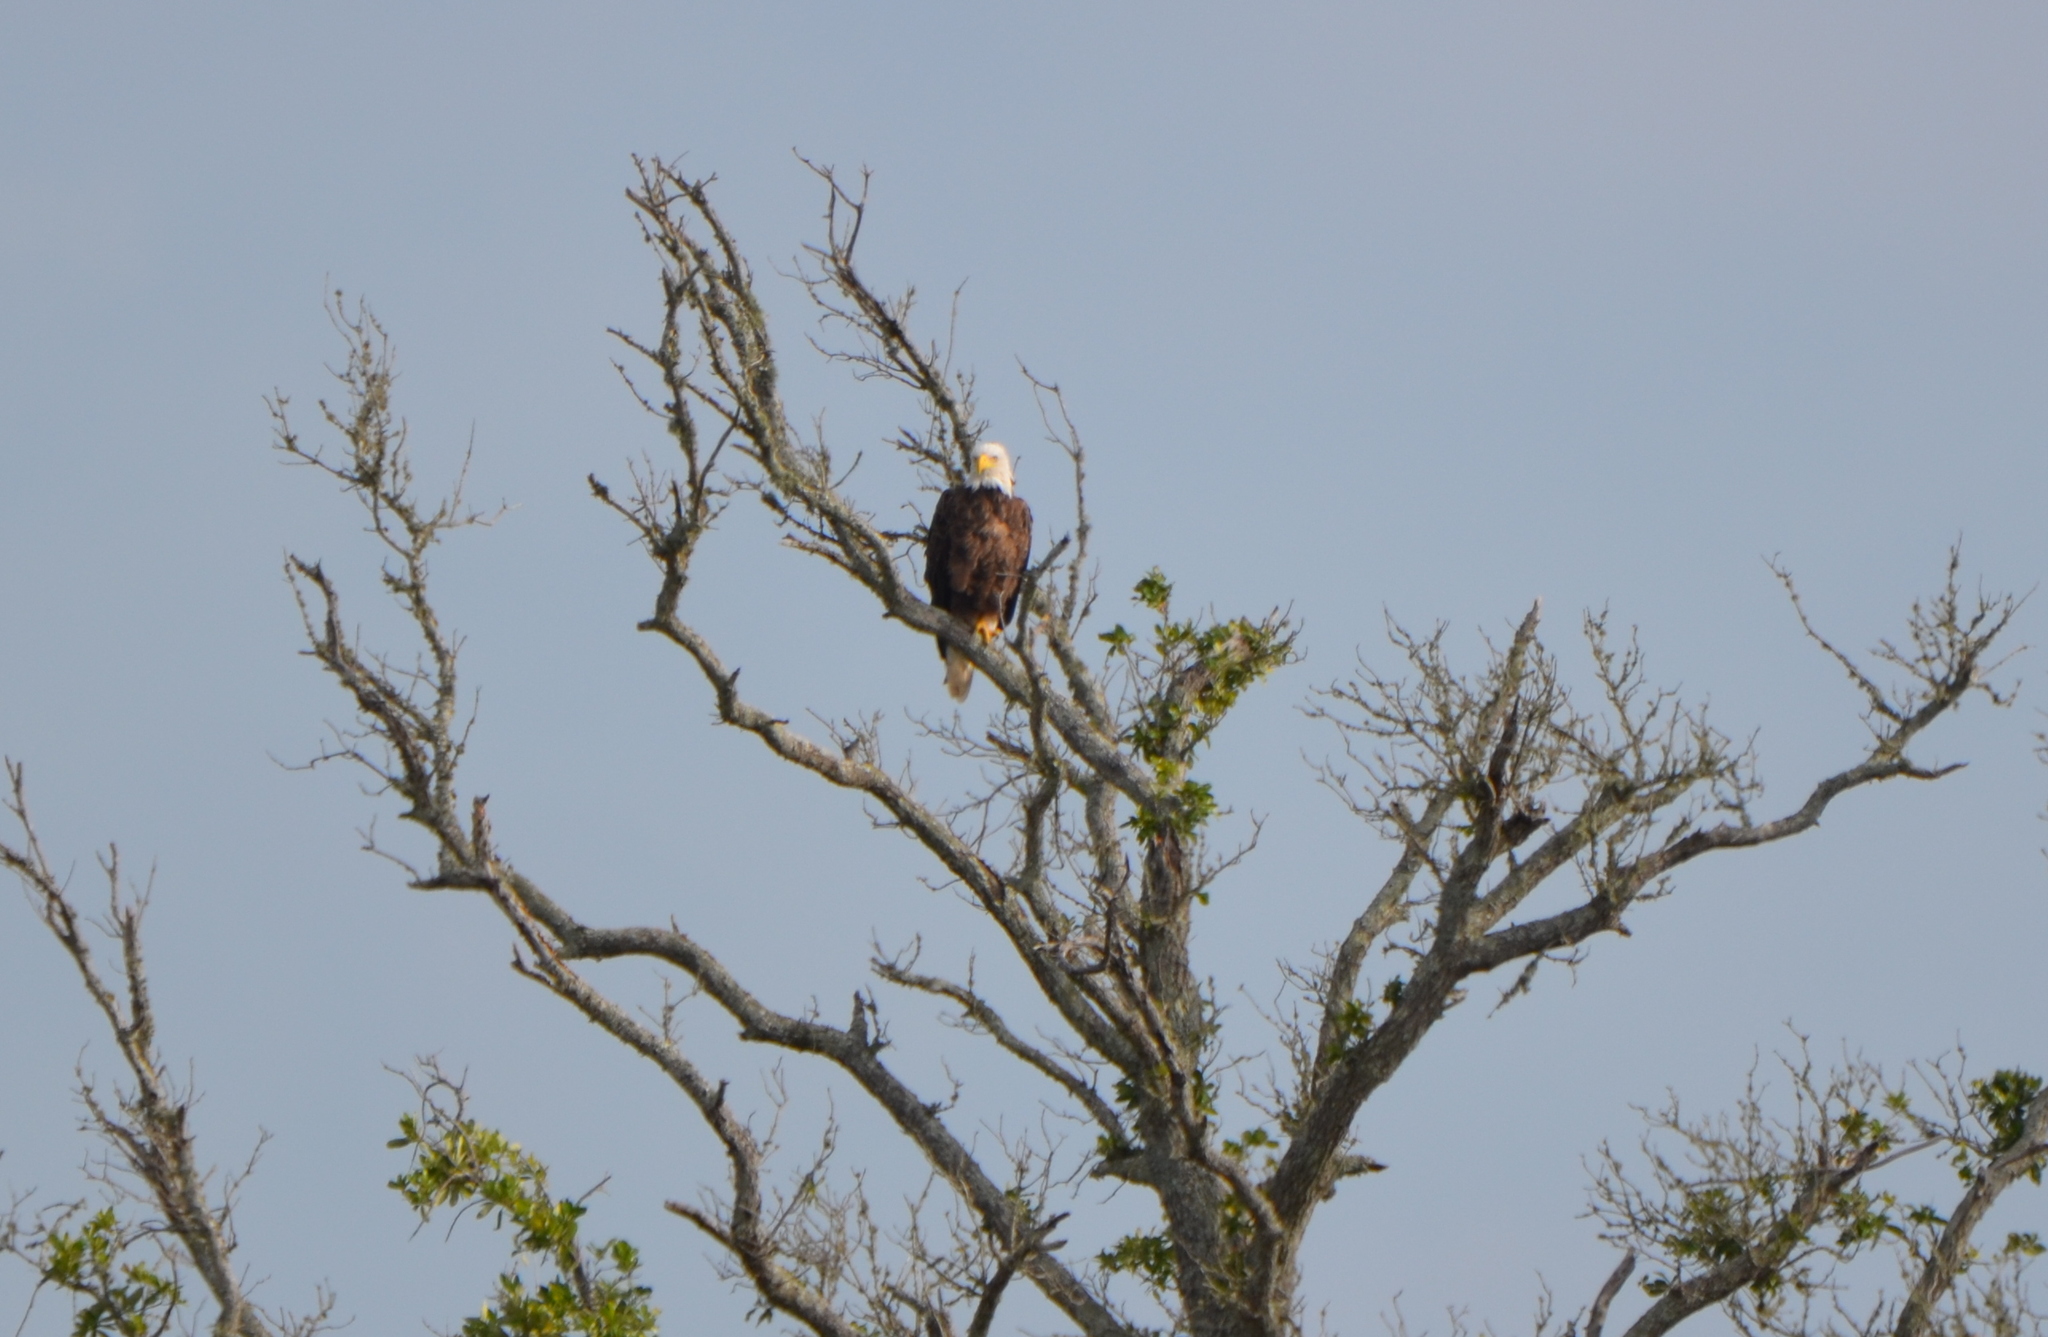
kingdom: Animalia
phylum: Chordata
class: Aves
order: Accipitriformes
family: Accipitridae
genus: Haliaeetus
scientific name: Haliaeetus leucocephalus
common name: Bald eagle
